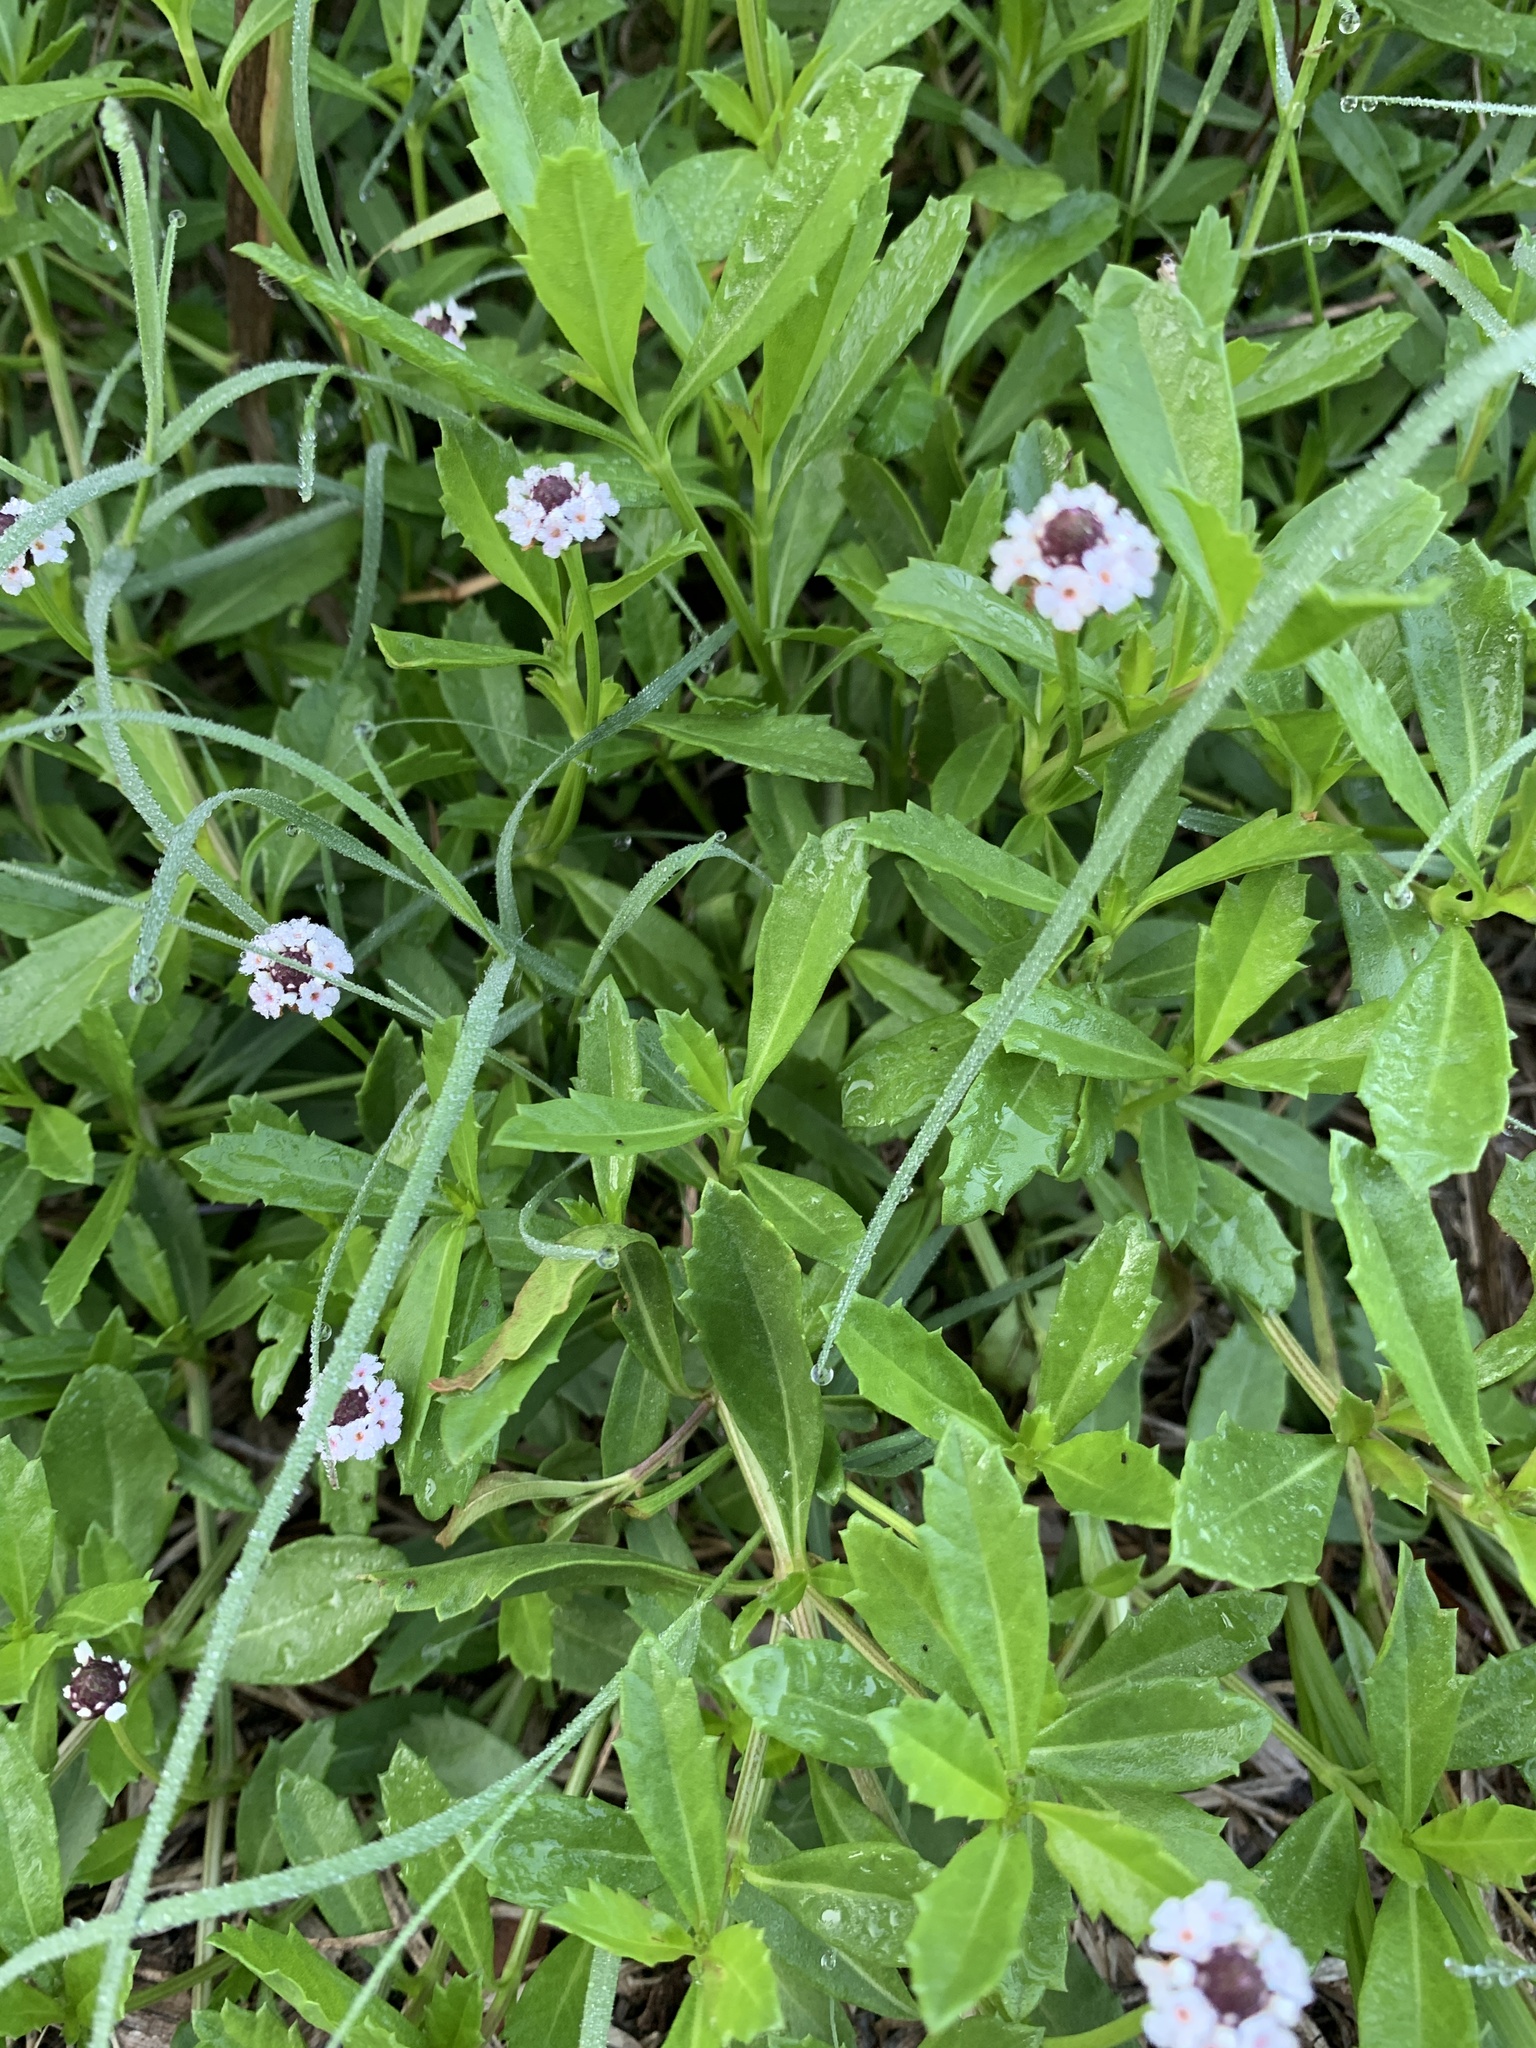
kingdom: Plantae
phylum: Tracheophyta
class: Magnoliopsida
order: Lamiales
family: Verbenaceae
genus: Phyla
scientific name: Phyla nodiflora
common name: Frogfruit
